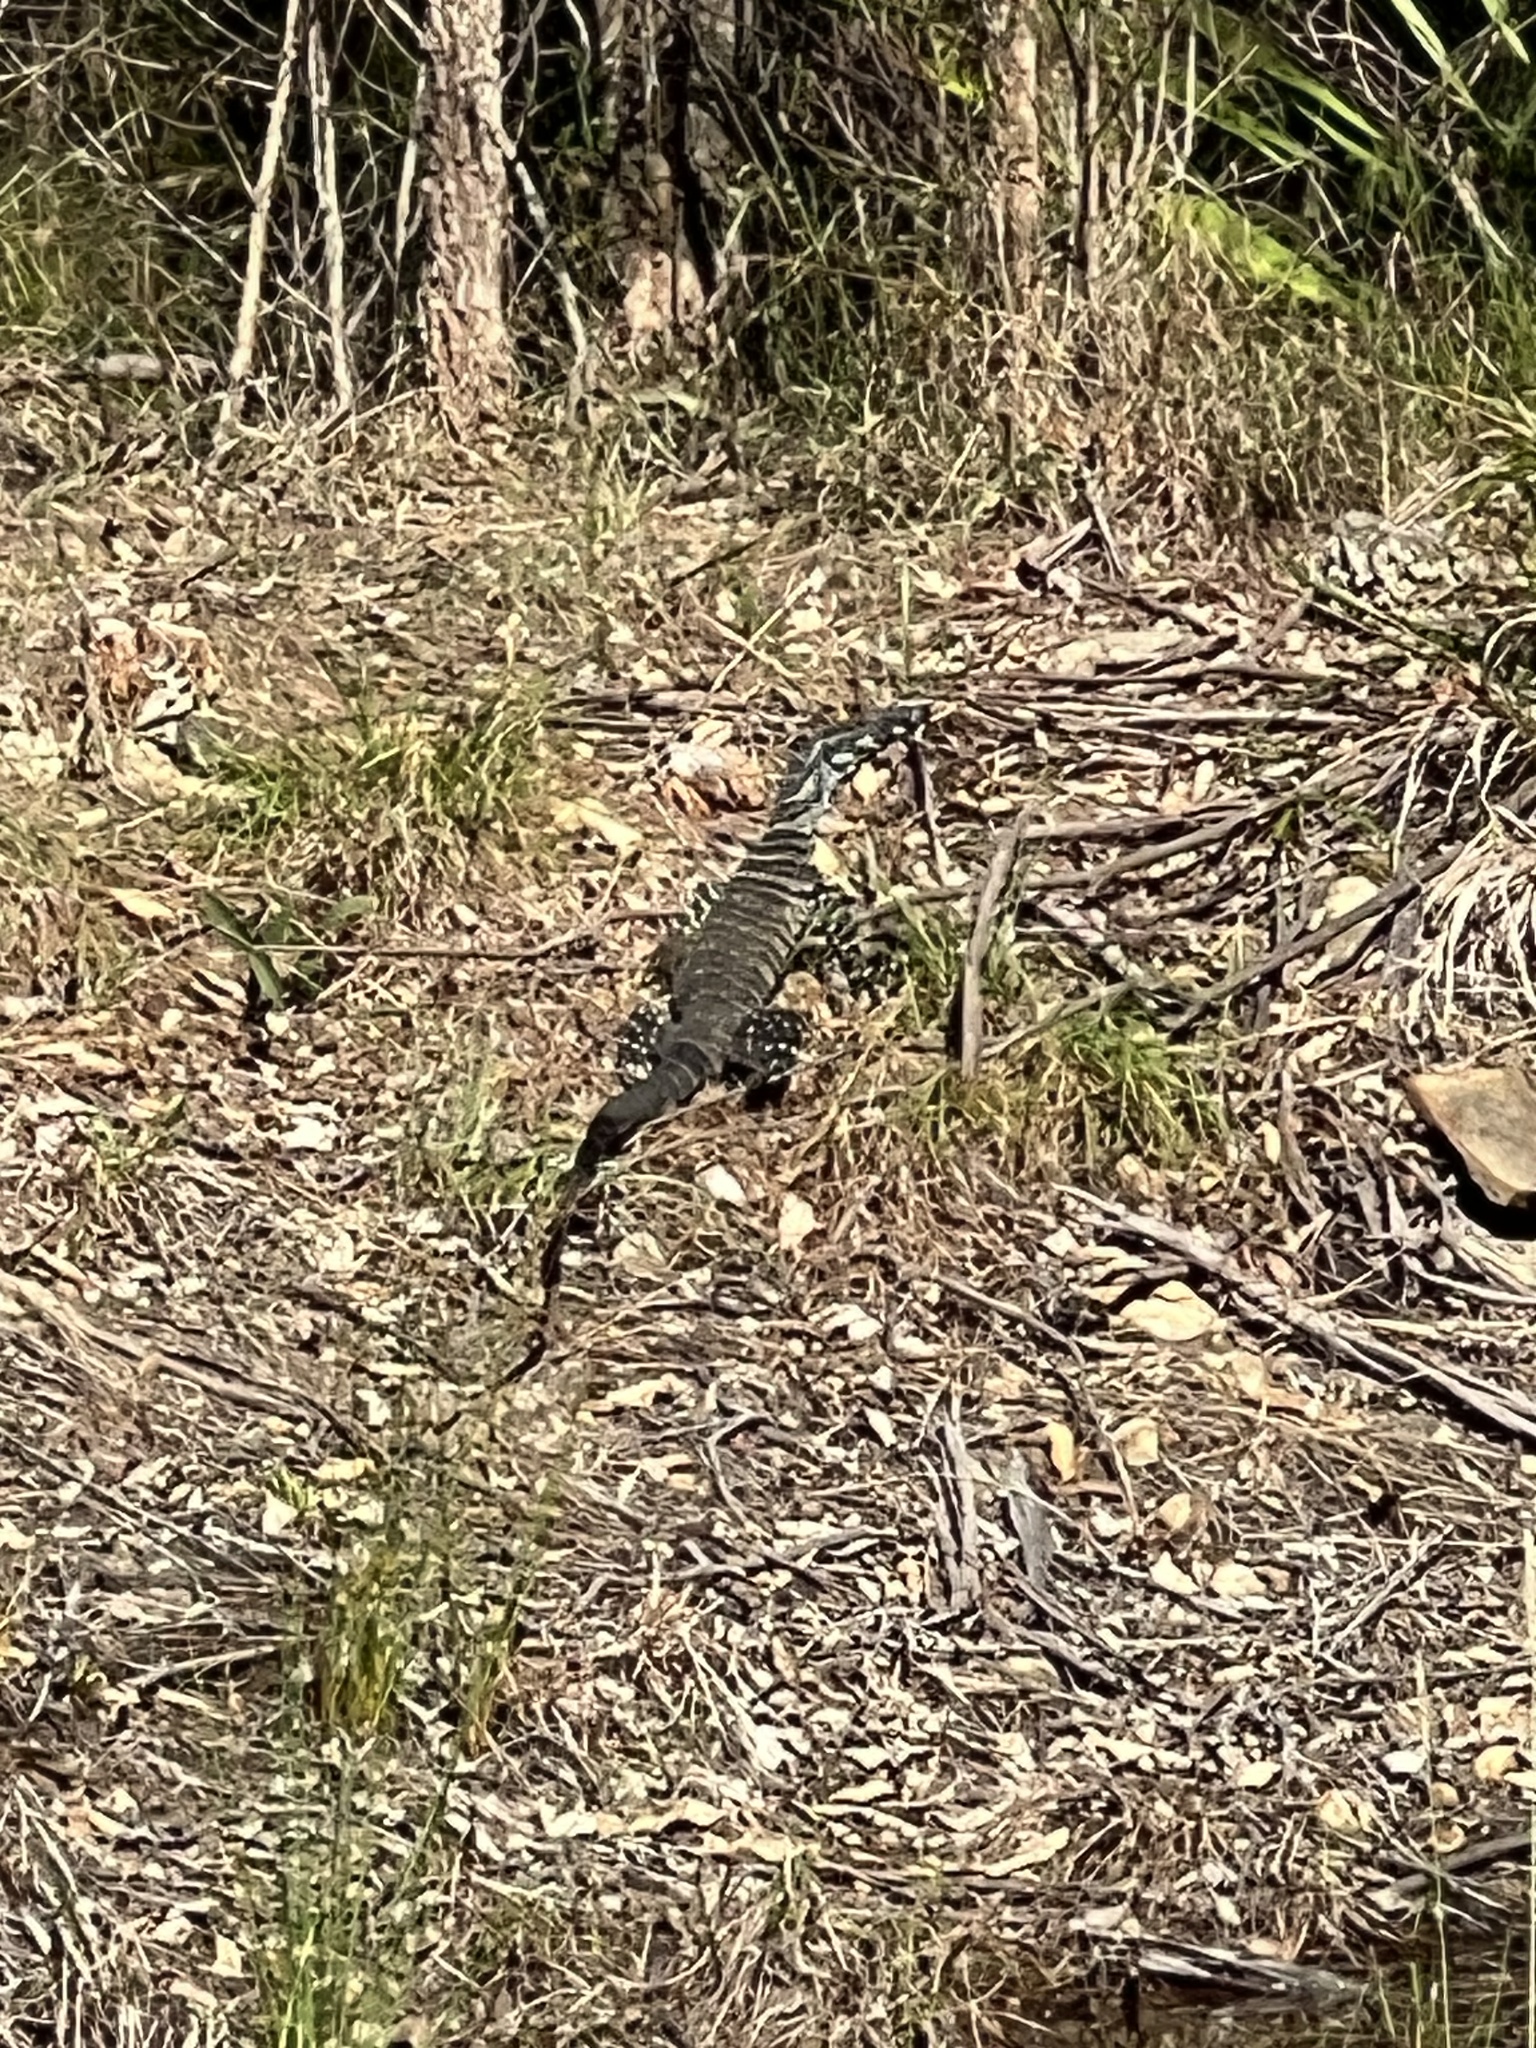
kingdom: Animalia
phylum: Chordata
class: Squamata
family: Varanidae
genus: Varanus
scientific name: Varanus varius
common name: Lace monitor
